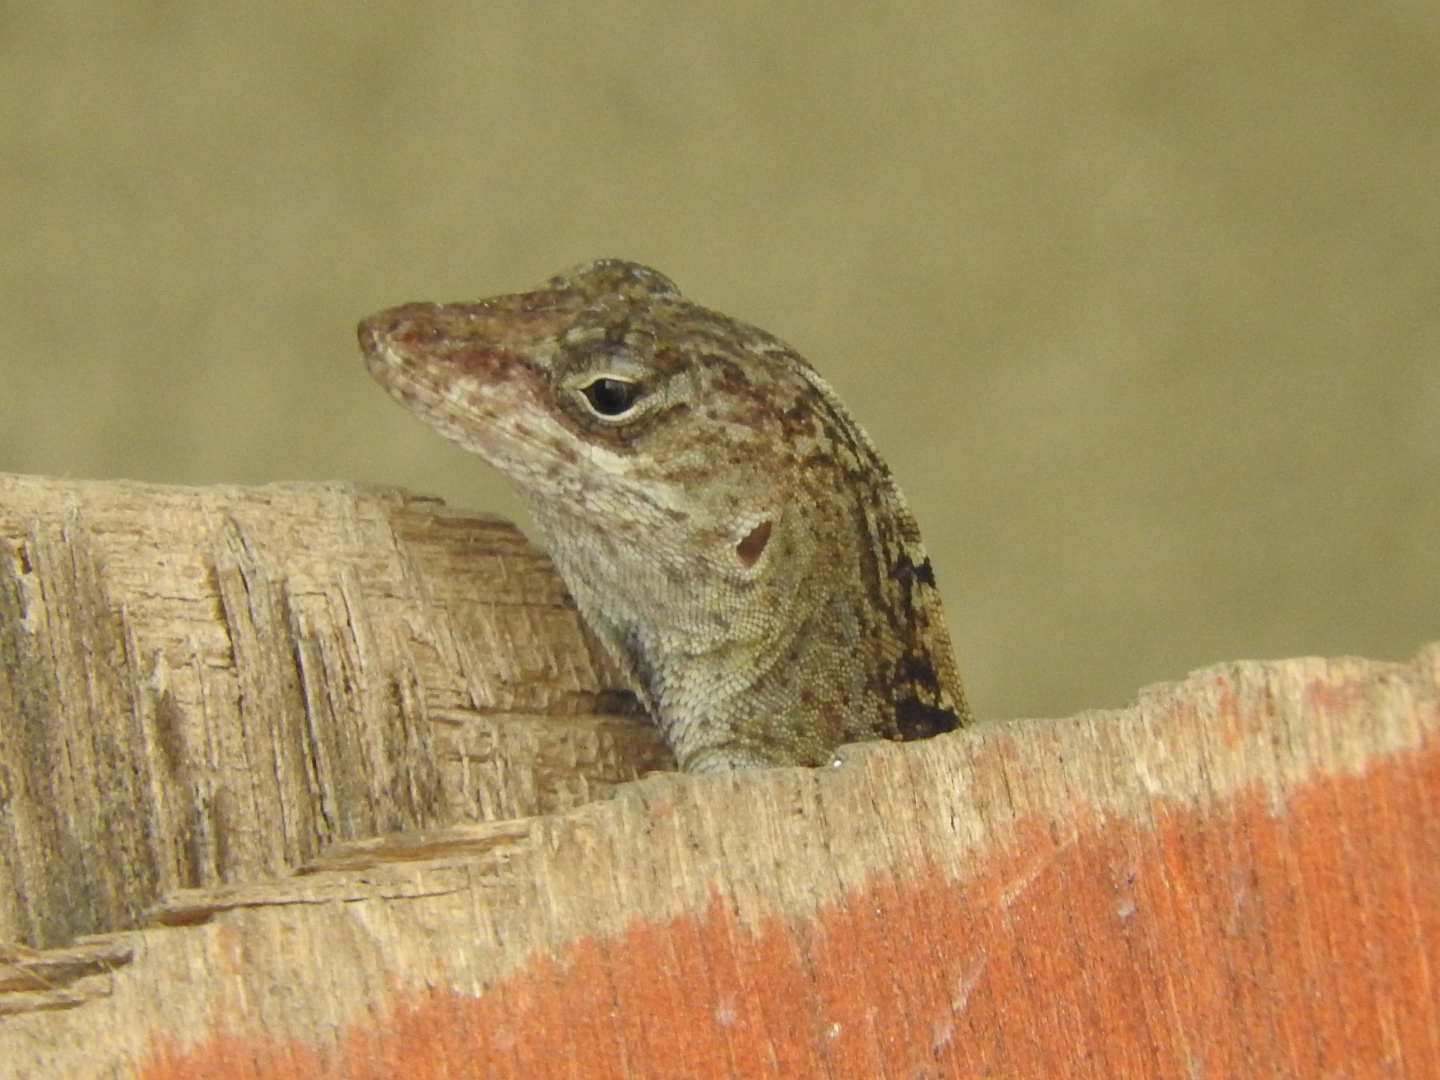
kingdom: Animalia
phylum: Chordata
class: Squamata
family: Dactyloidae
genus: Anolis
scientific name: Anolis sagrei
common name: Brown anole
